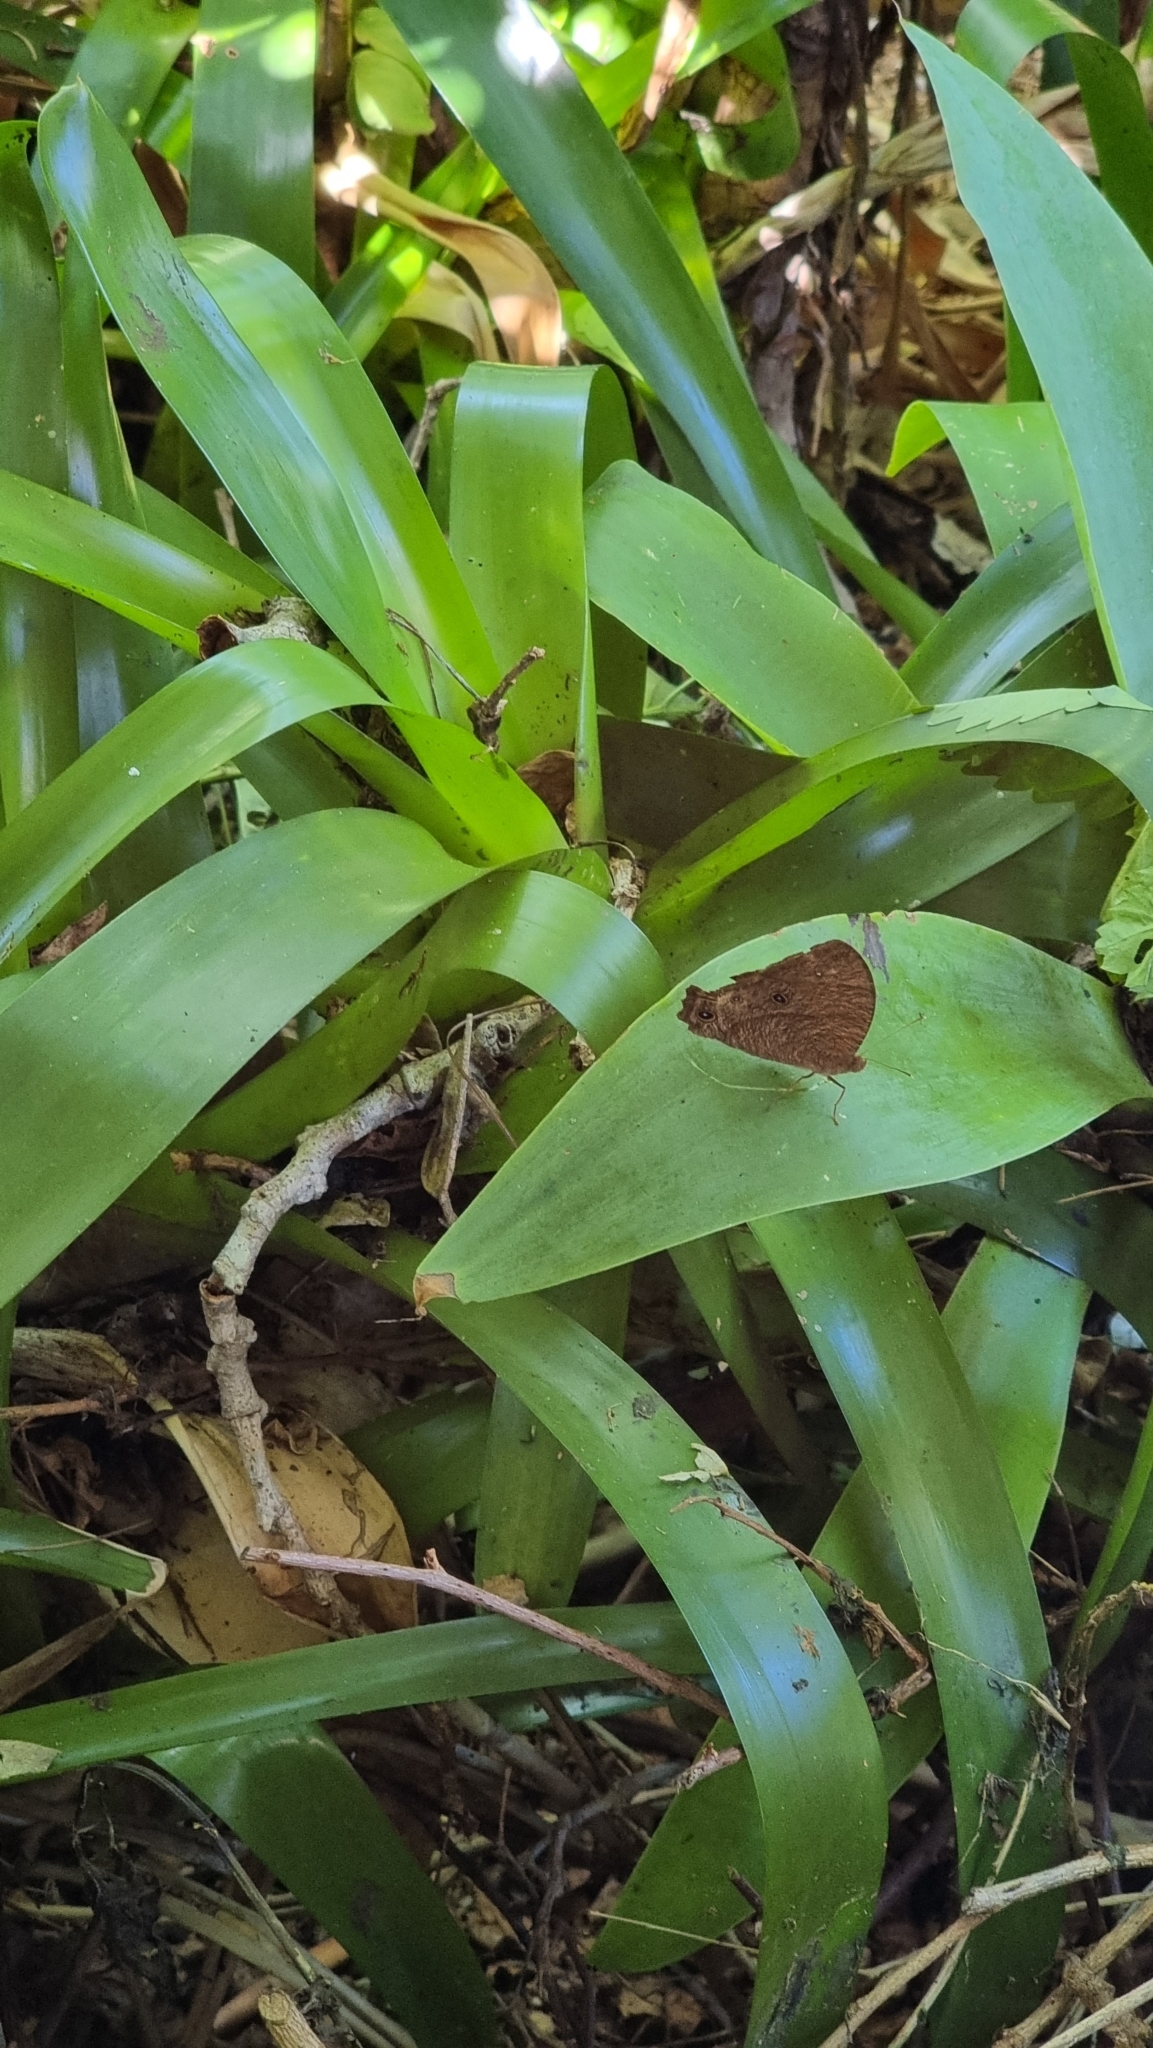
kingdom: Animalia
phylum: Arthropoda
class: Insecta
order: Lepidoptera
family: Nymphalidae
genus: Melanitis
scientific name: Melanitis leda
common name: Twilight brown
